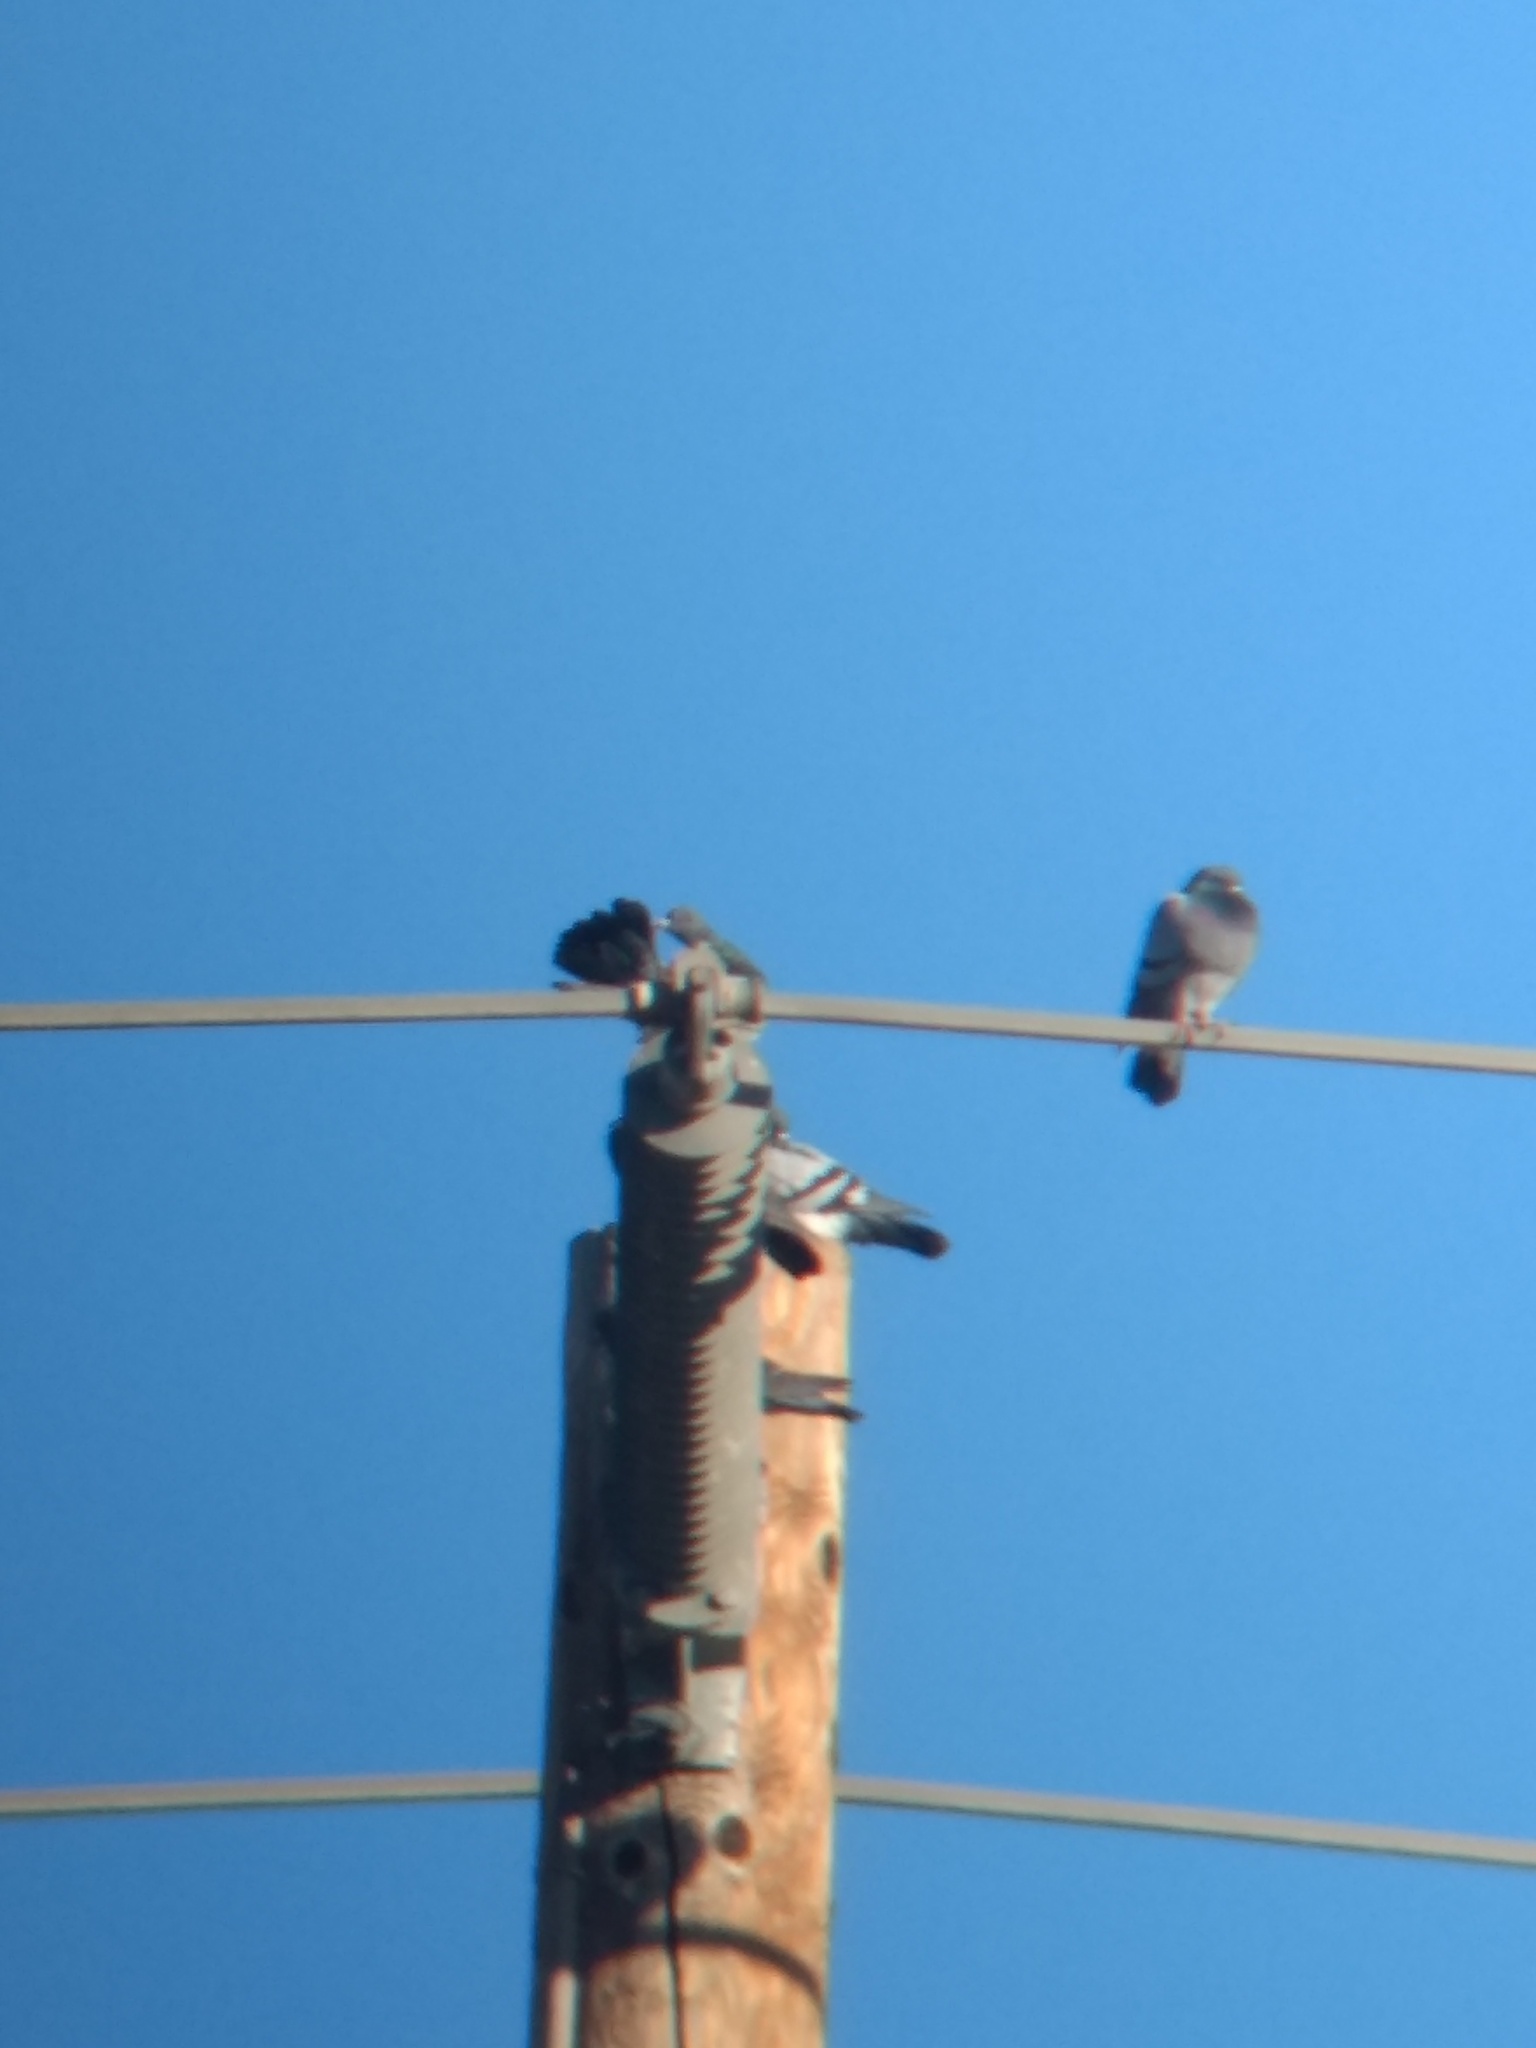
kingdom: Animalia
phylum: Chordata
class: Aves
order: Columbiformes
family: Columbidae
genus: Columba
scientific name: Columba livia
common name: Rock pigeon
